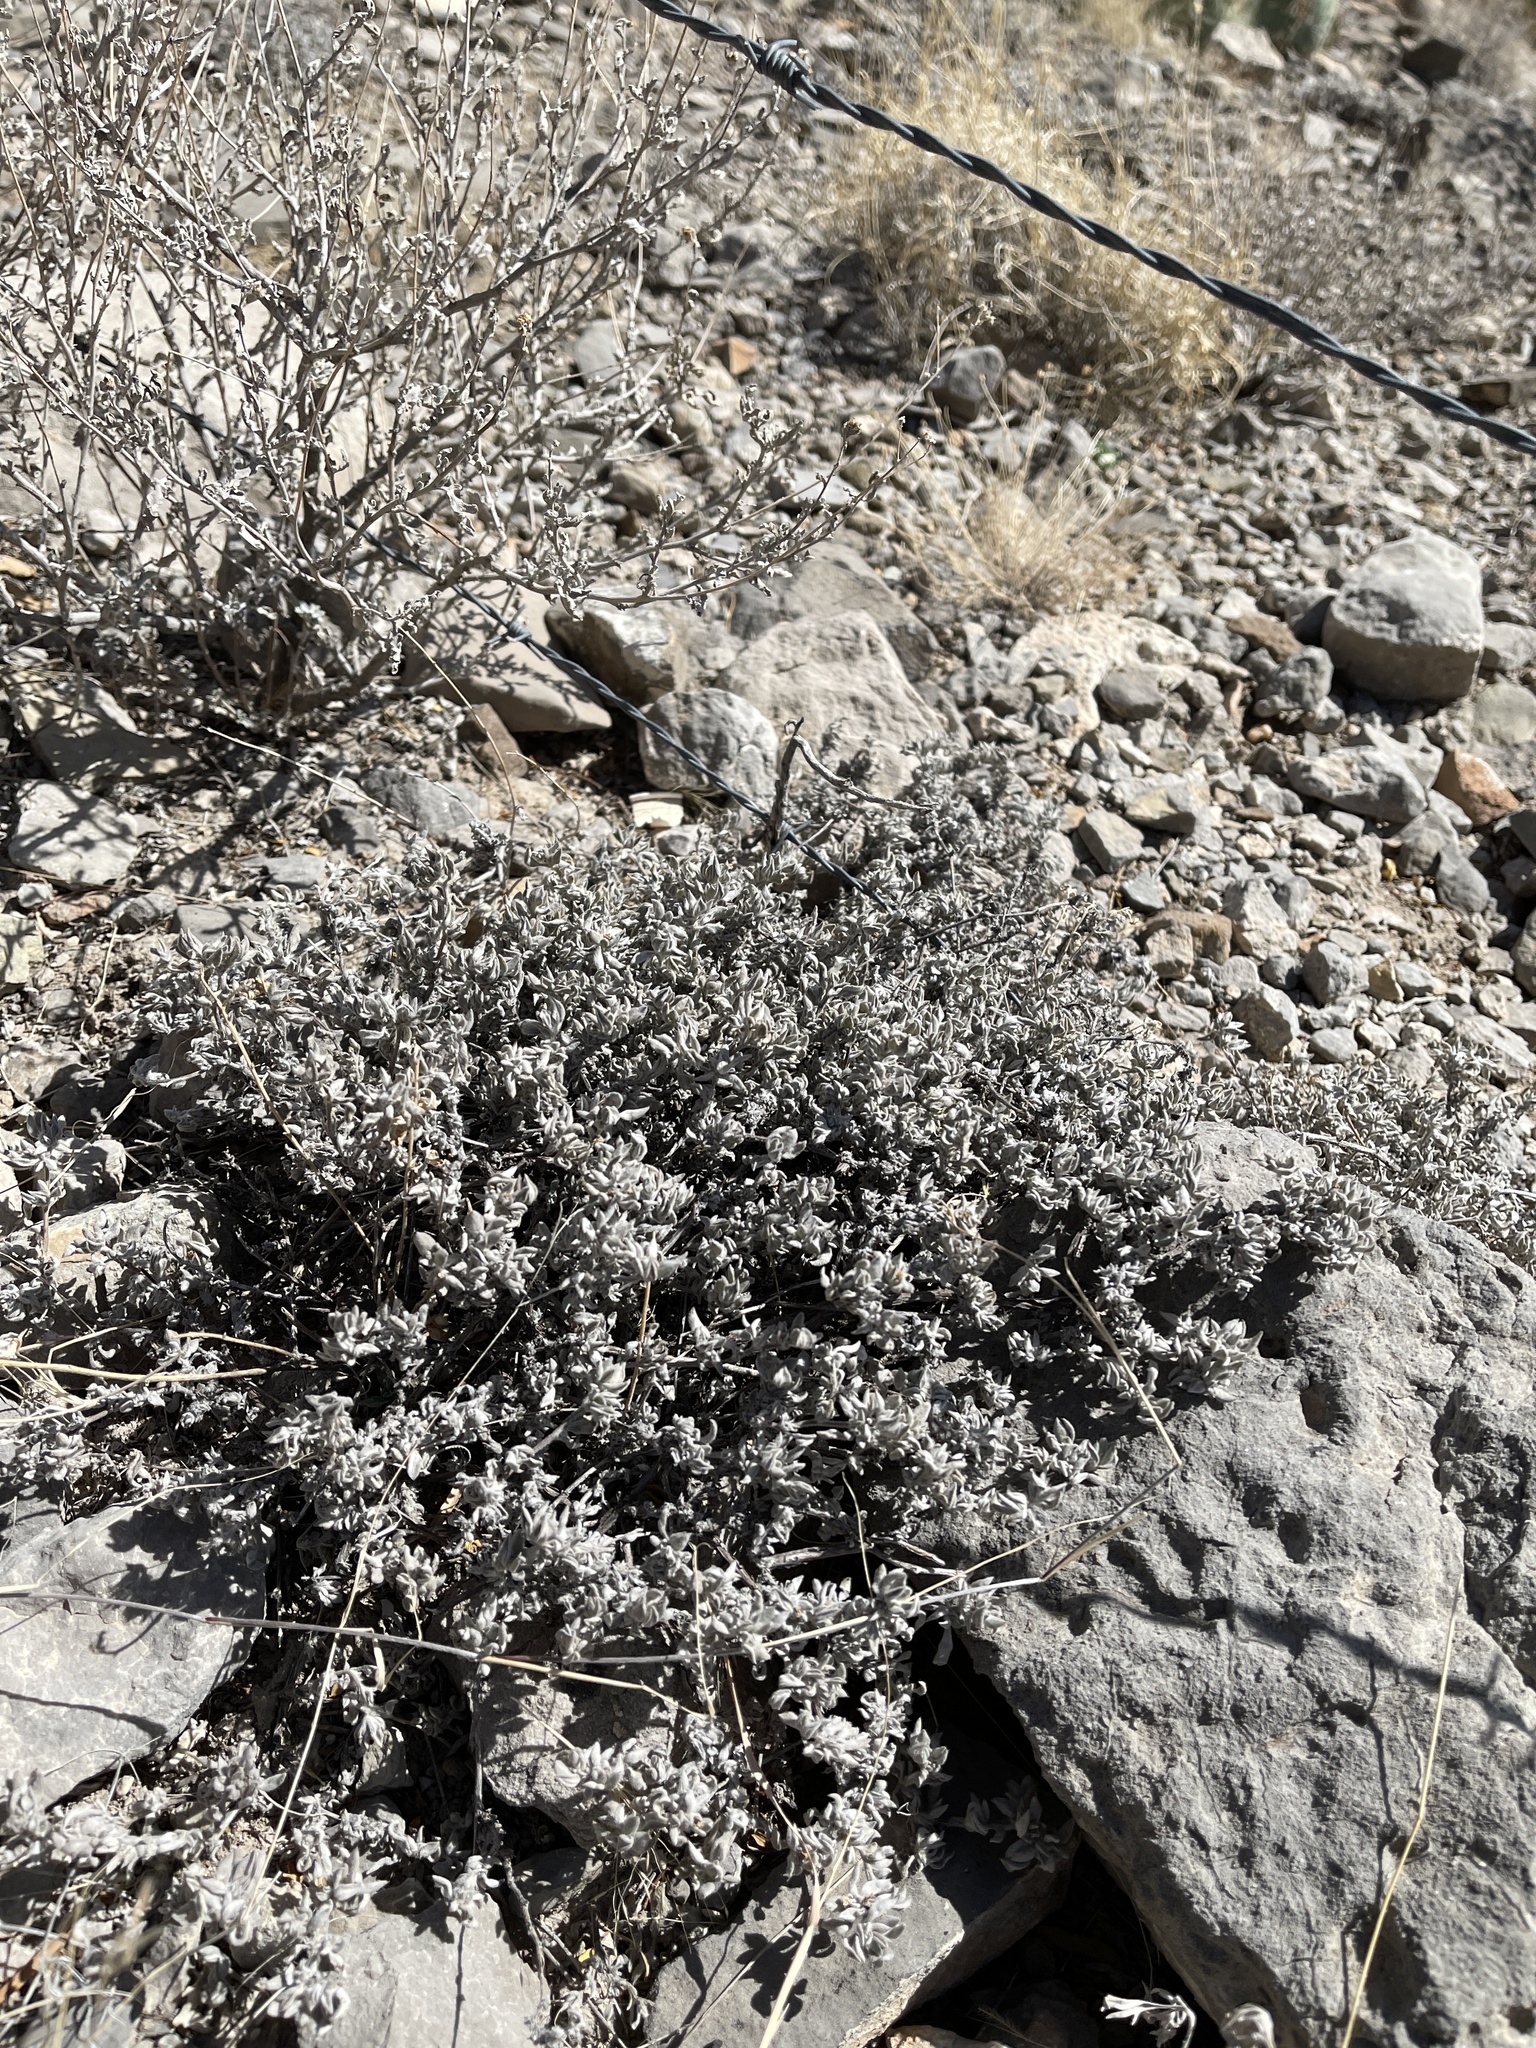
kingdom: Plantae
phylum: Tracheophyta
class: Magnoliopsida
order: Boraginales
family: Ehretiaceae
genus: Tiquilia
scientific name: Tiquilia canescens
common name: Hairy tiquilia
